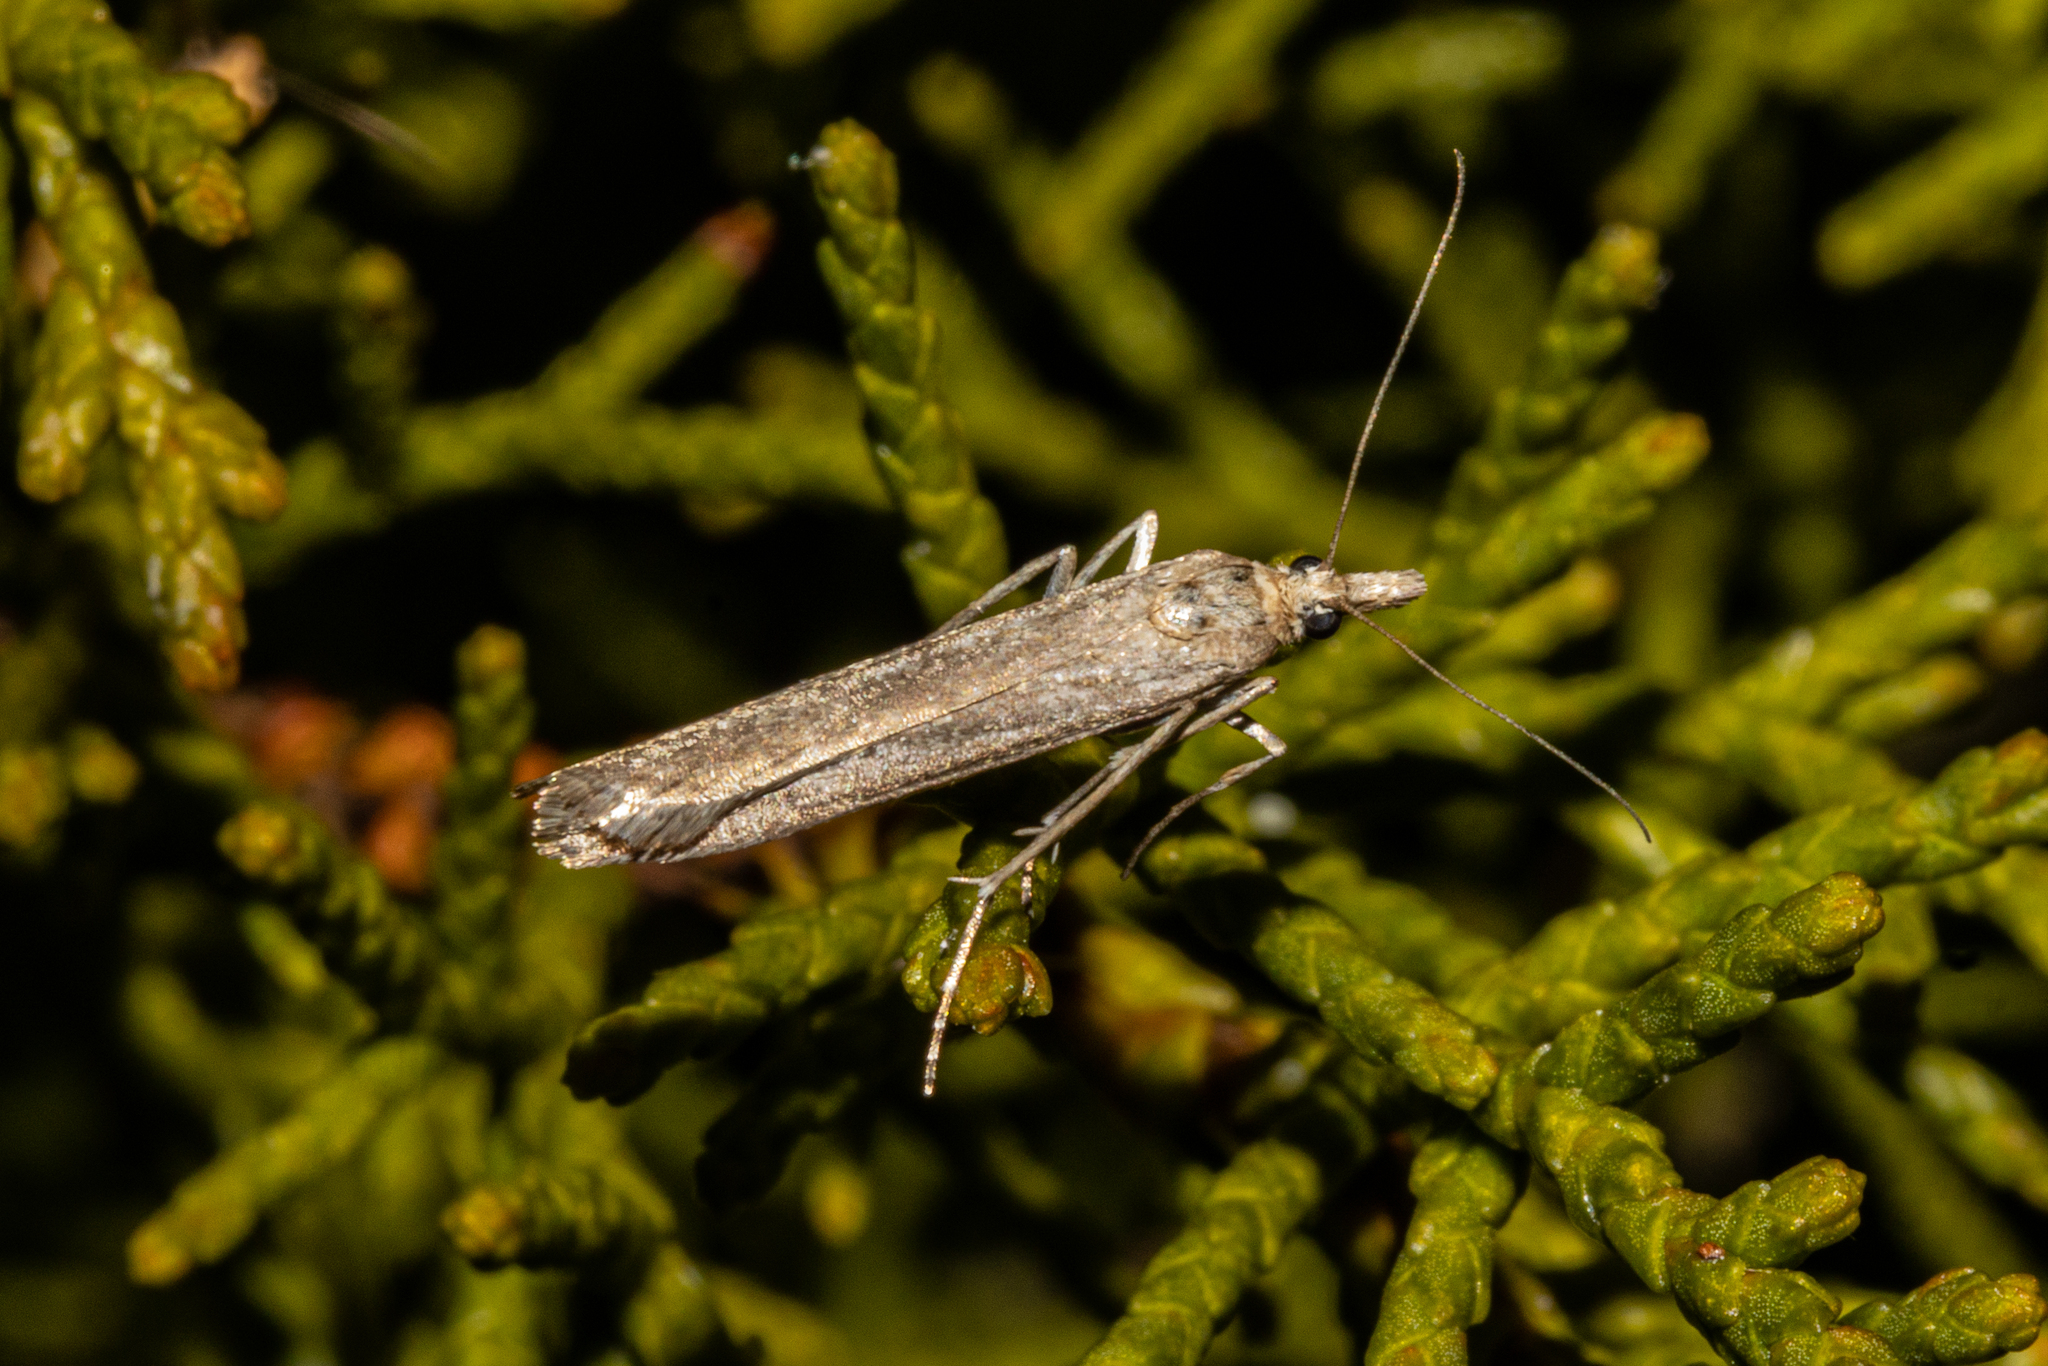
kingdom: Animalia
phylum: Arthropoda
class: Insecta
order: Lepidoptera
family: Crambidae
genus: Eudonia
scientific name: Eudonia leptalea
